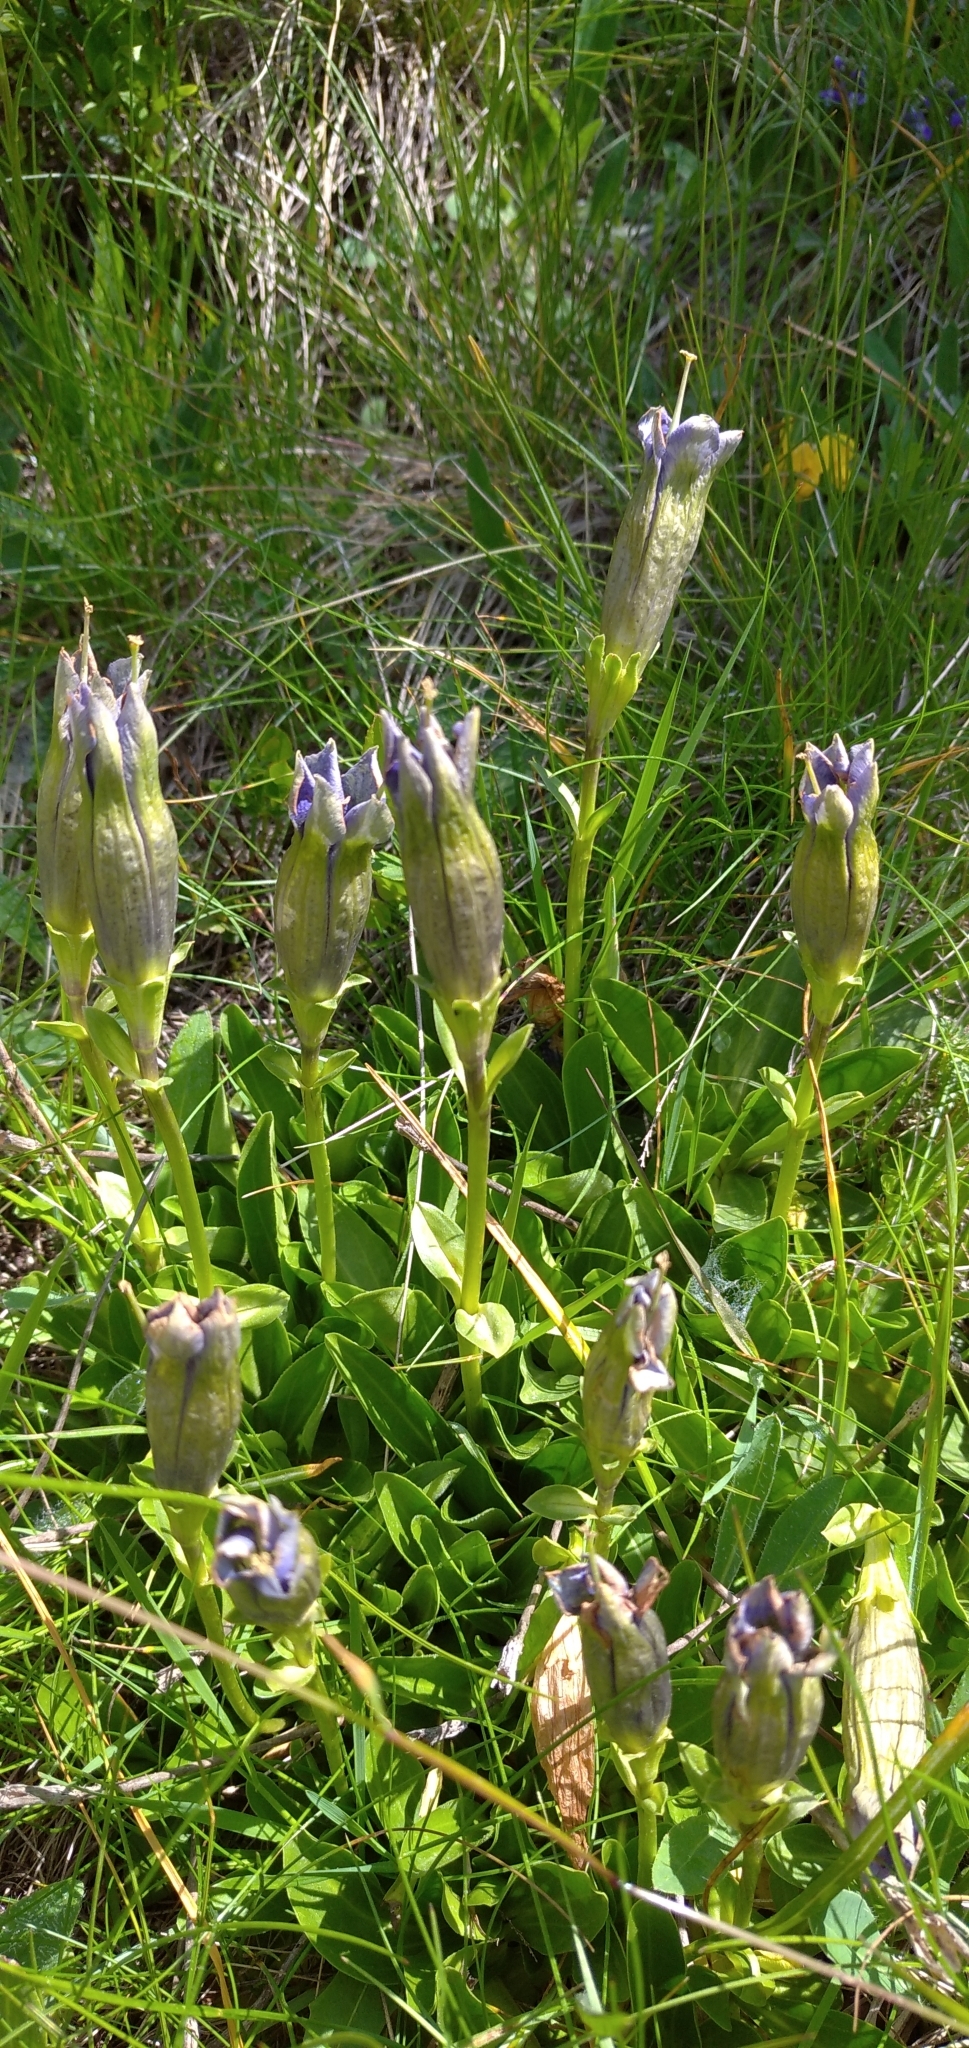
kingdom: Plantae
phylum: Tracheophyta
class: Magnoliopsida
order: Gentianales
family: Gentianaceae
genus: Gentiana
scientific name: Gentiana acaulis
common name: Trumpet gentian
